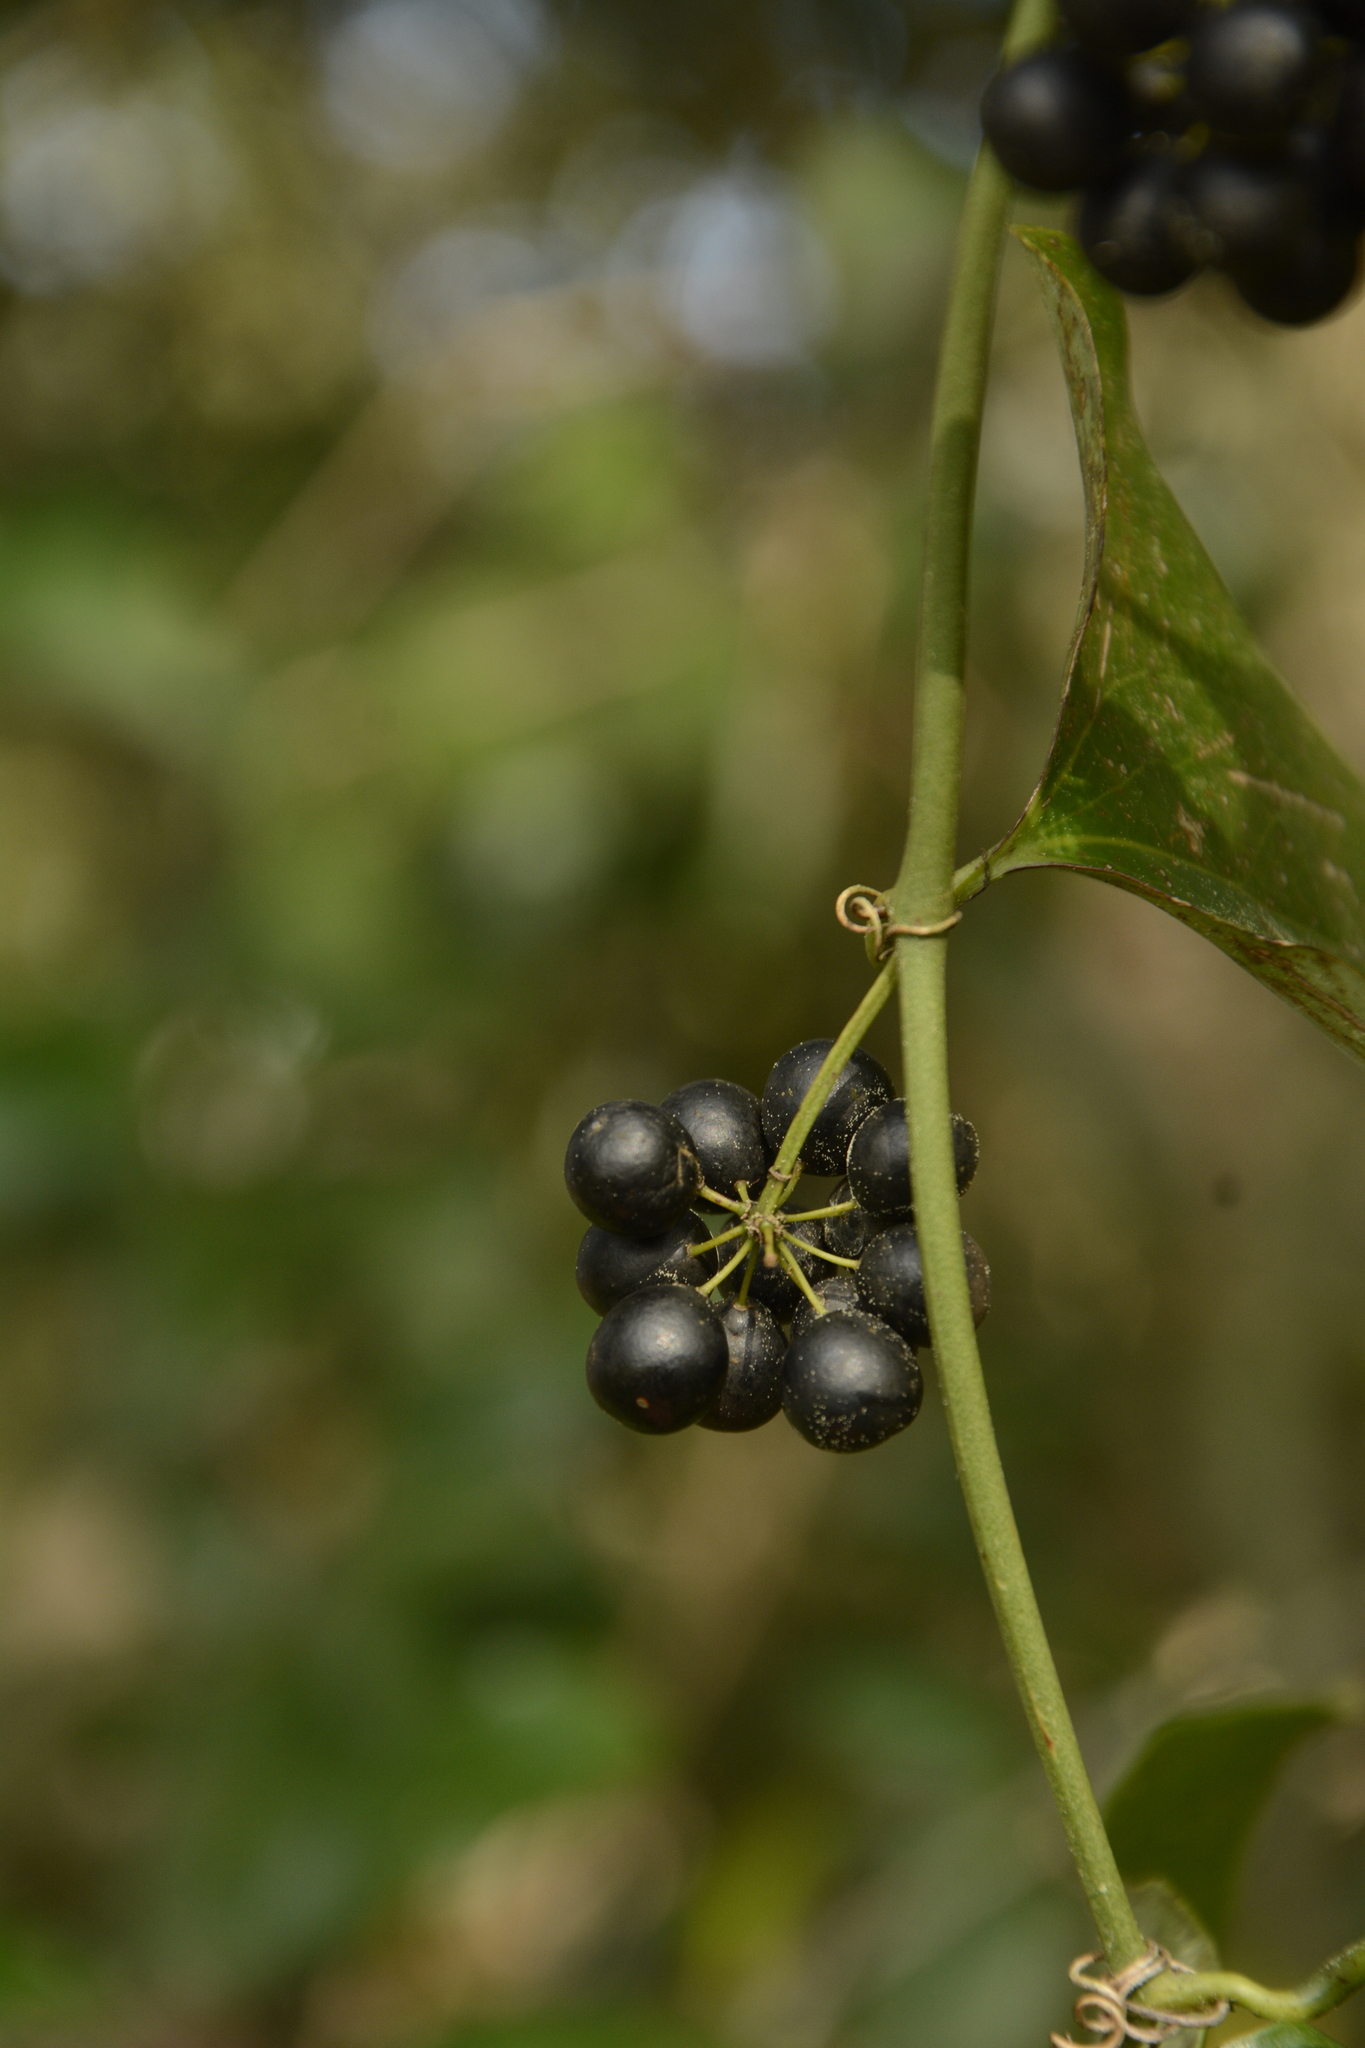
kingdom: Plantae
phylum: Tracheophyta
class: Liliopsida
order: Liliales
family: Smilacaceae
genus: Smilax
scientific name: Smilax bona-nox
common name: Catbrier
